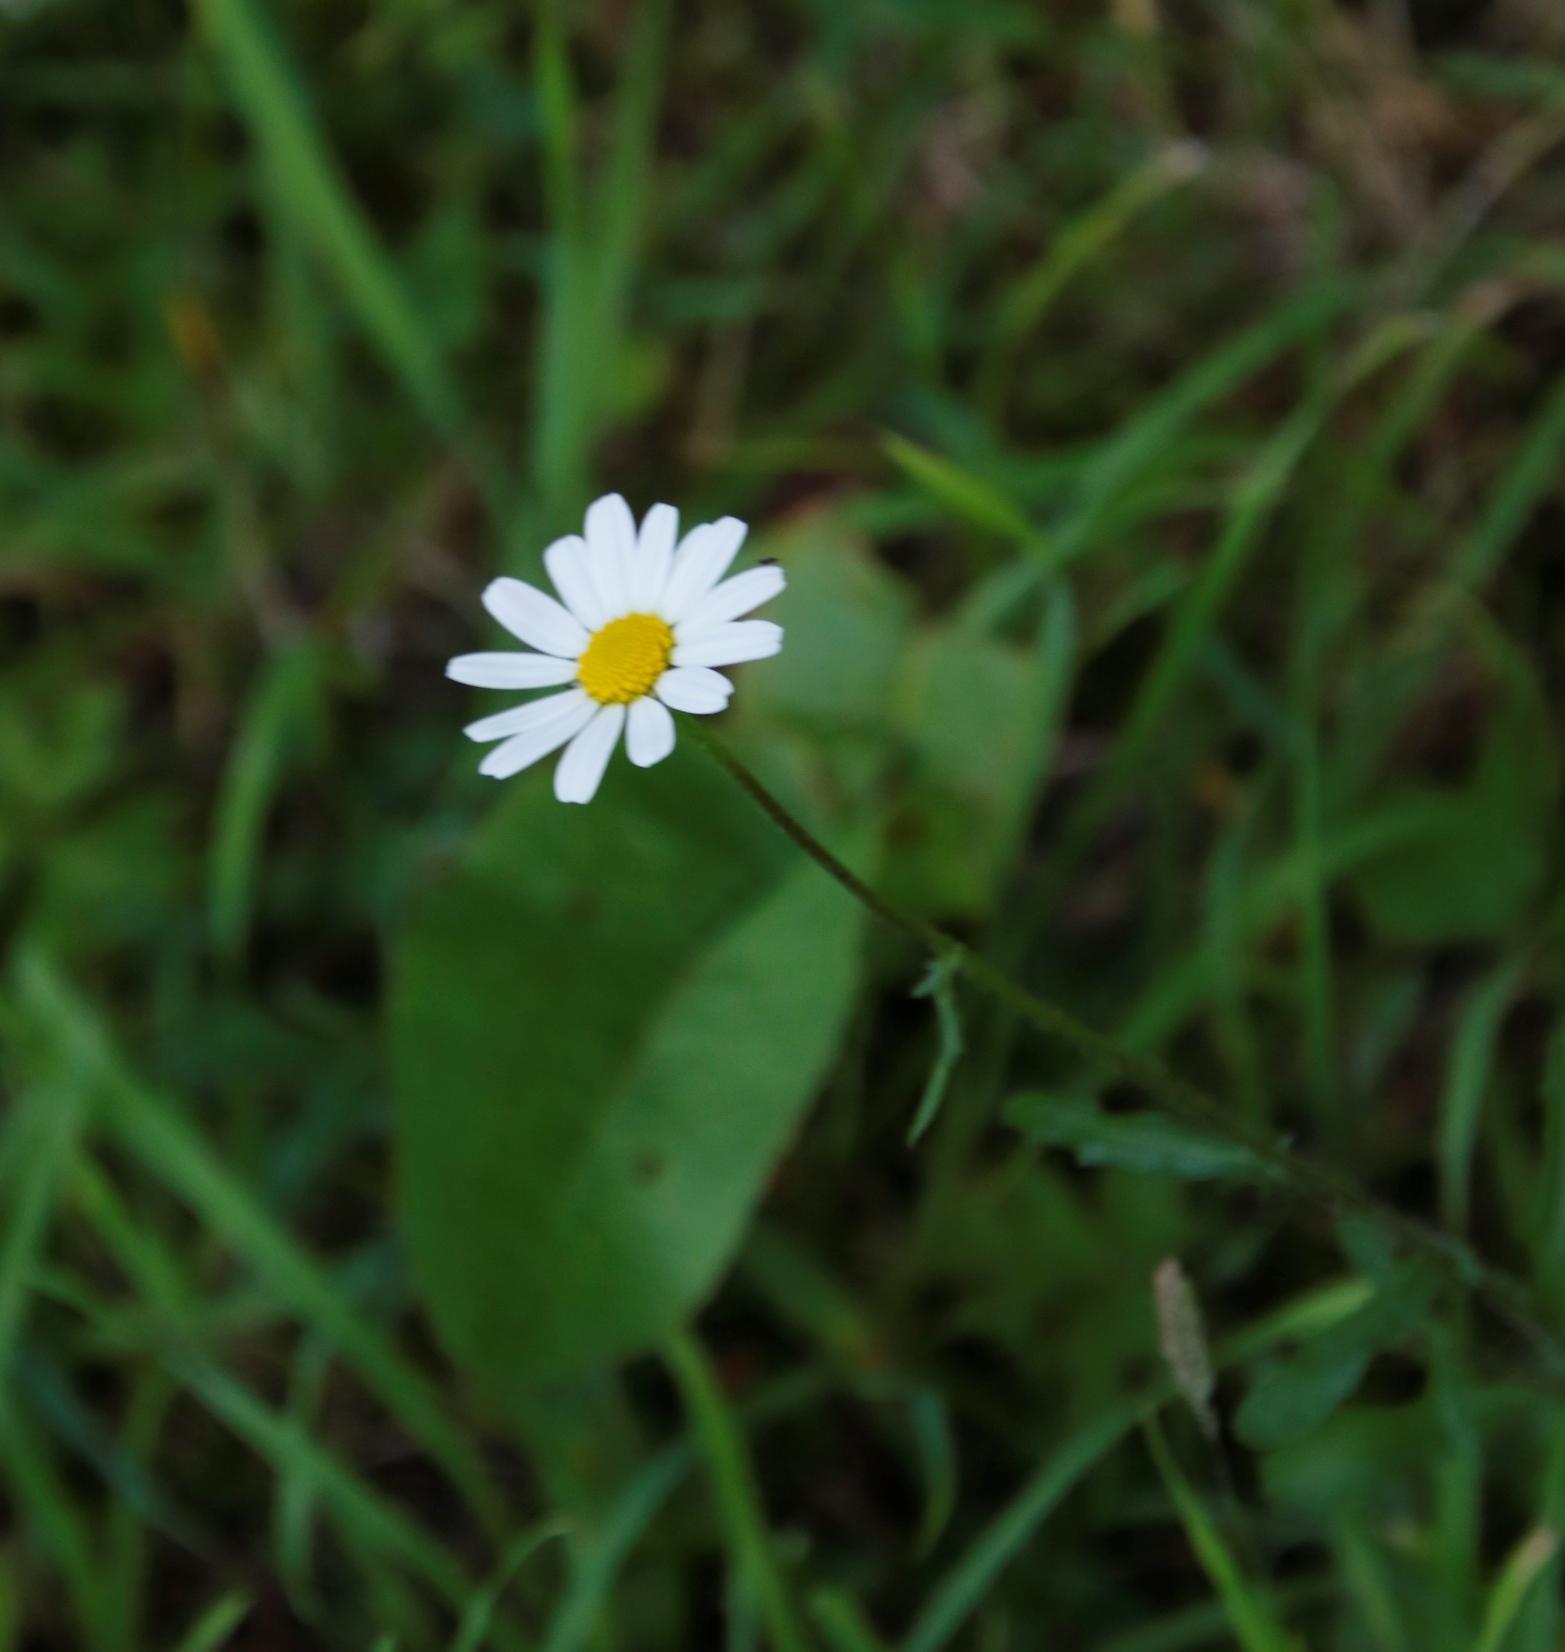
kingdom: Plantae
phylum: Tracheophyta
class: Magnoliopsida
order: Asterales
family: Asteraceae
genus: Leucanthemum
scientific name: Leucanthemum vulgare
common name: Oxeye daisy
